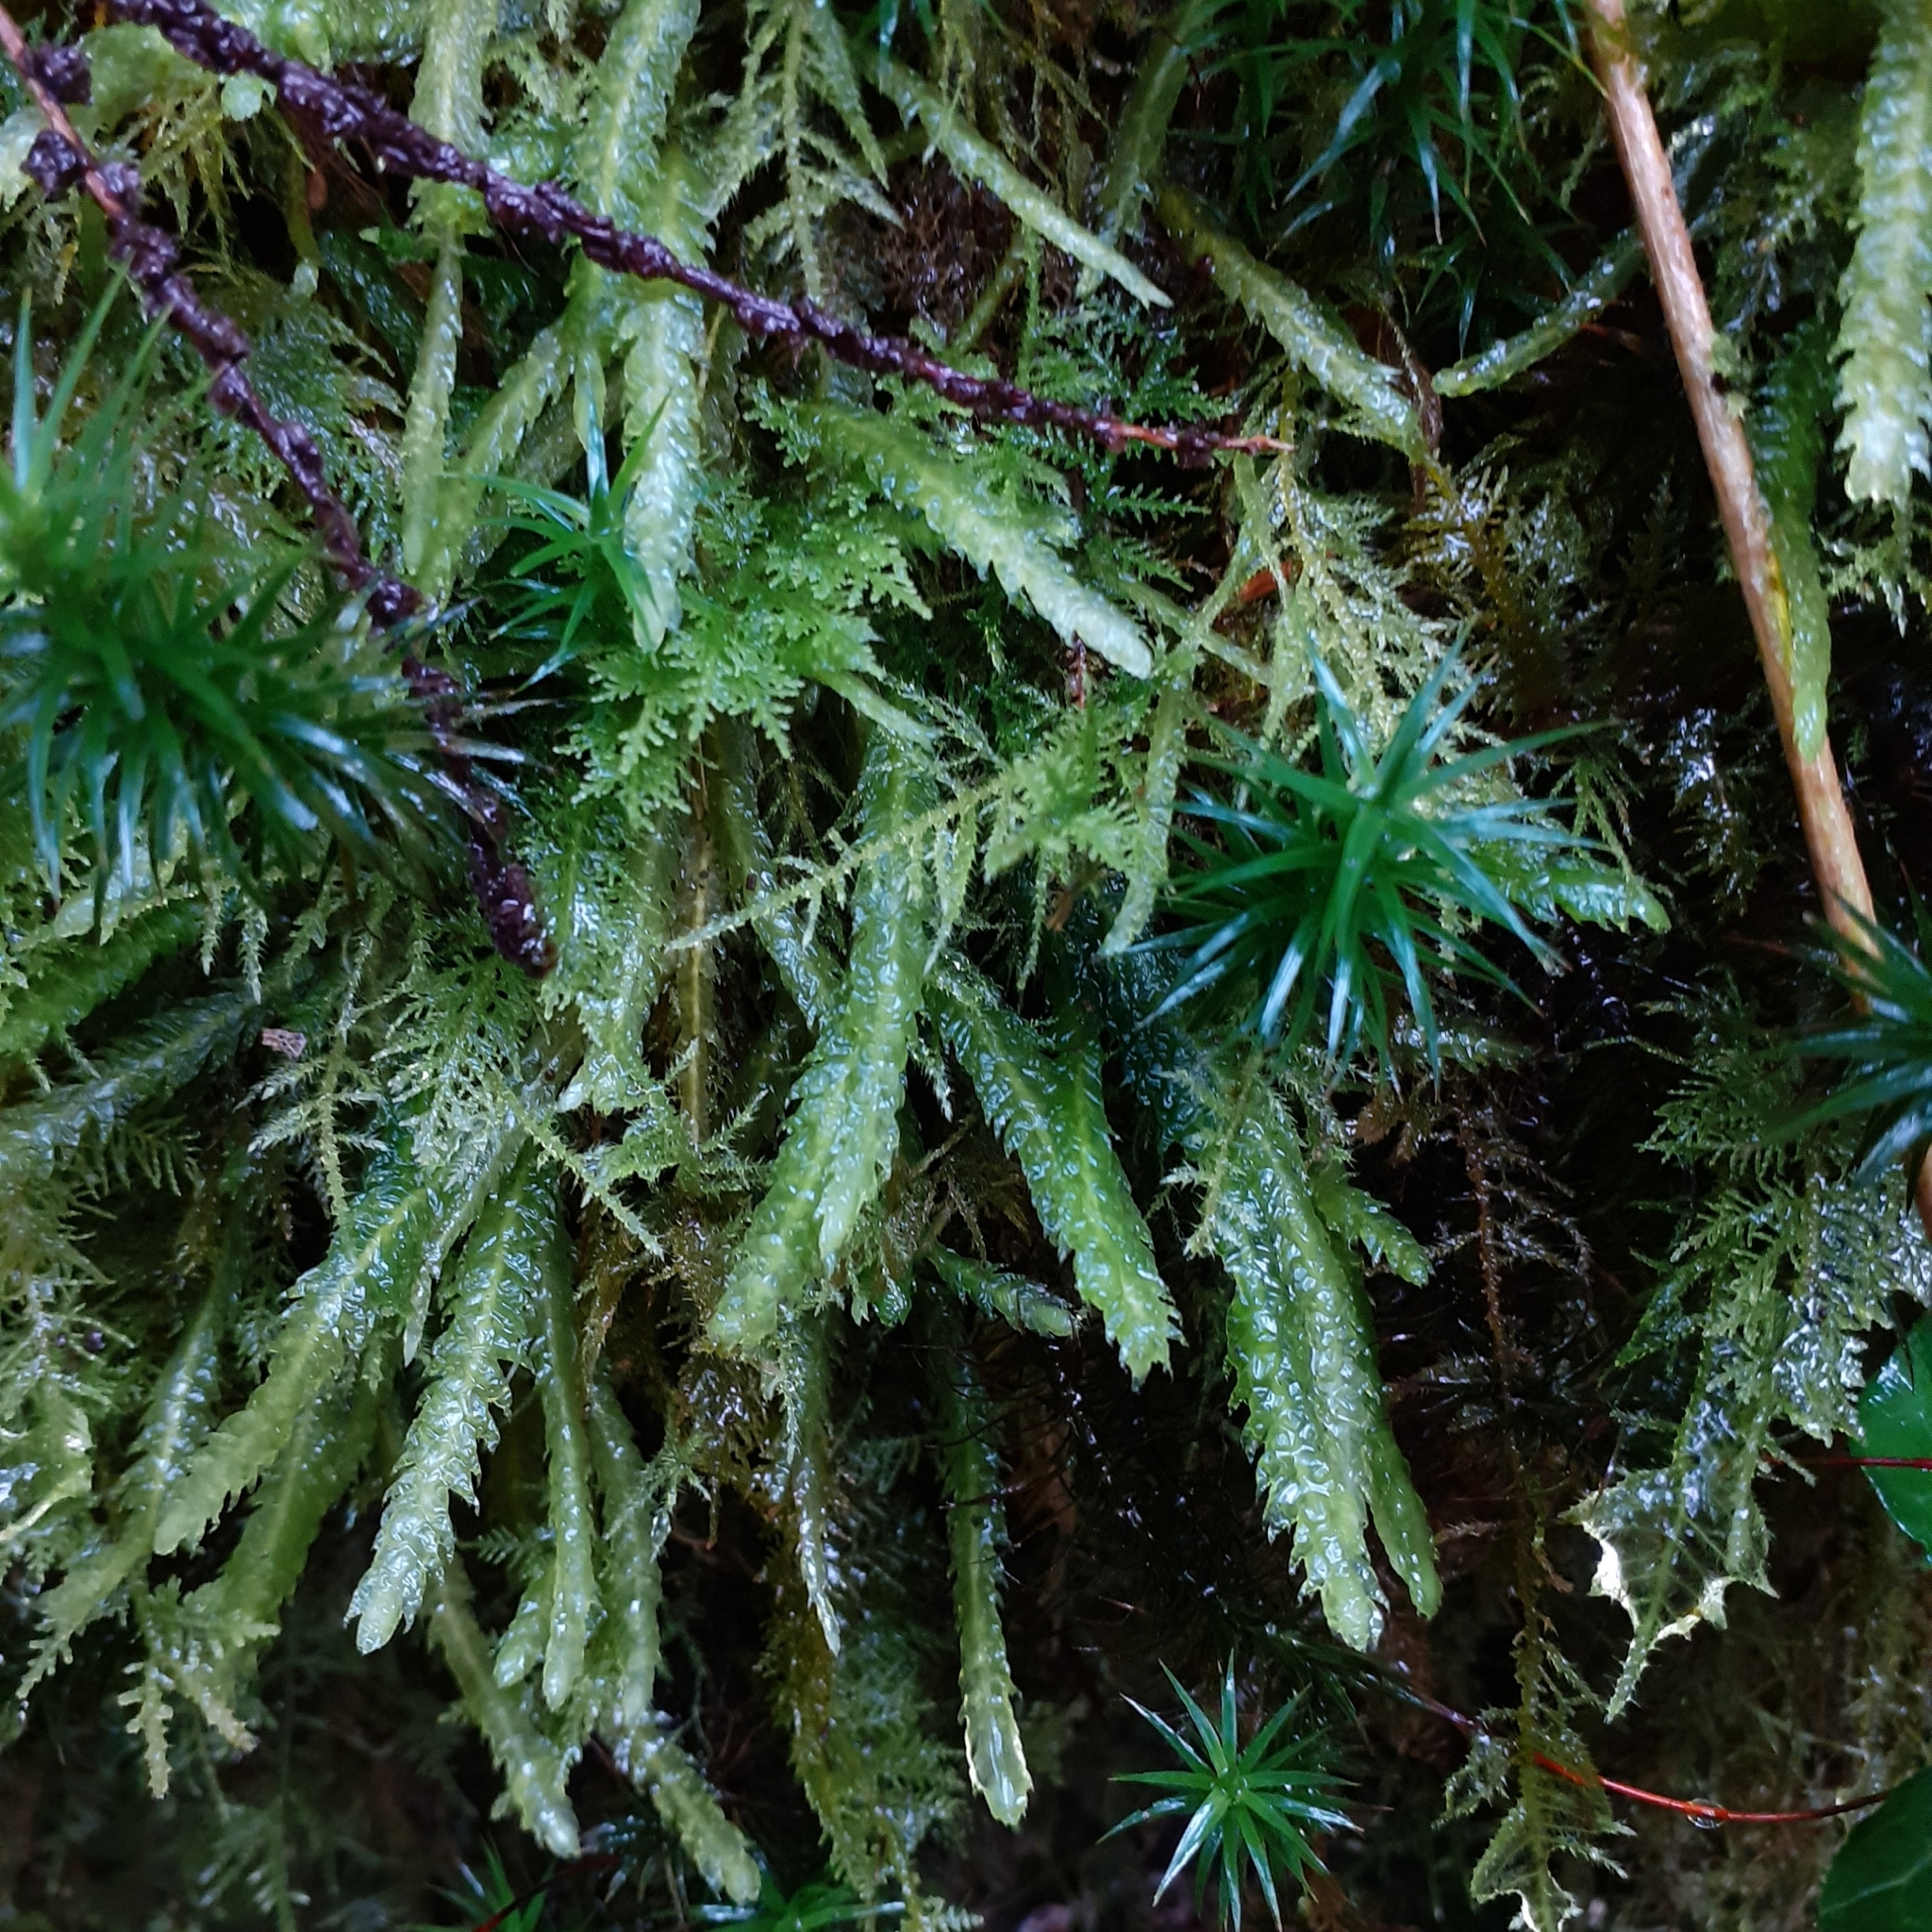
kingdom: Plantae
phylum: Bryophyta
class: Bryopsida
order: Hypnales
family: Plagiotheciaceae
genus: Plagiothecium
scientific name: Plagiothecium undulatum
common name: Waved silk-moss
